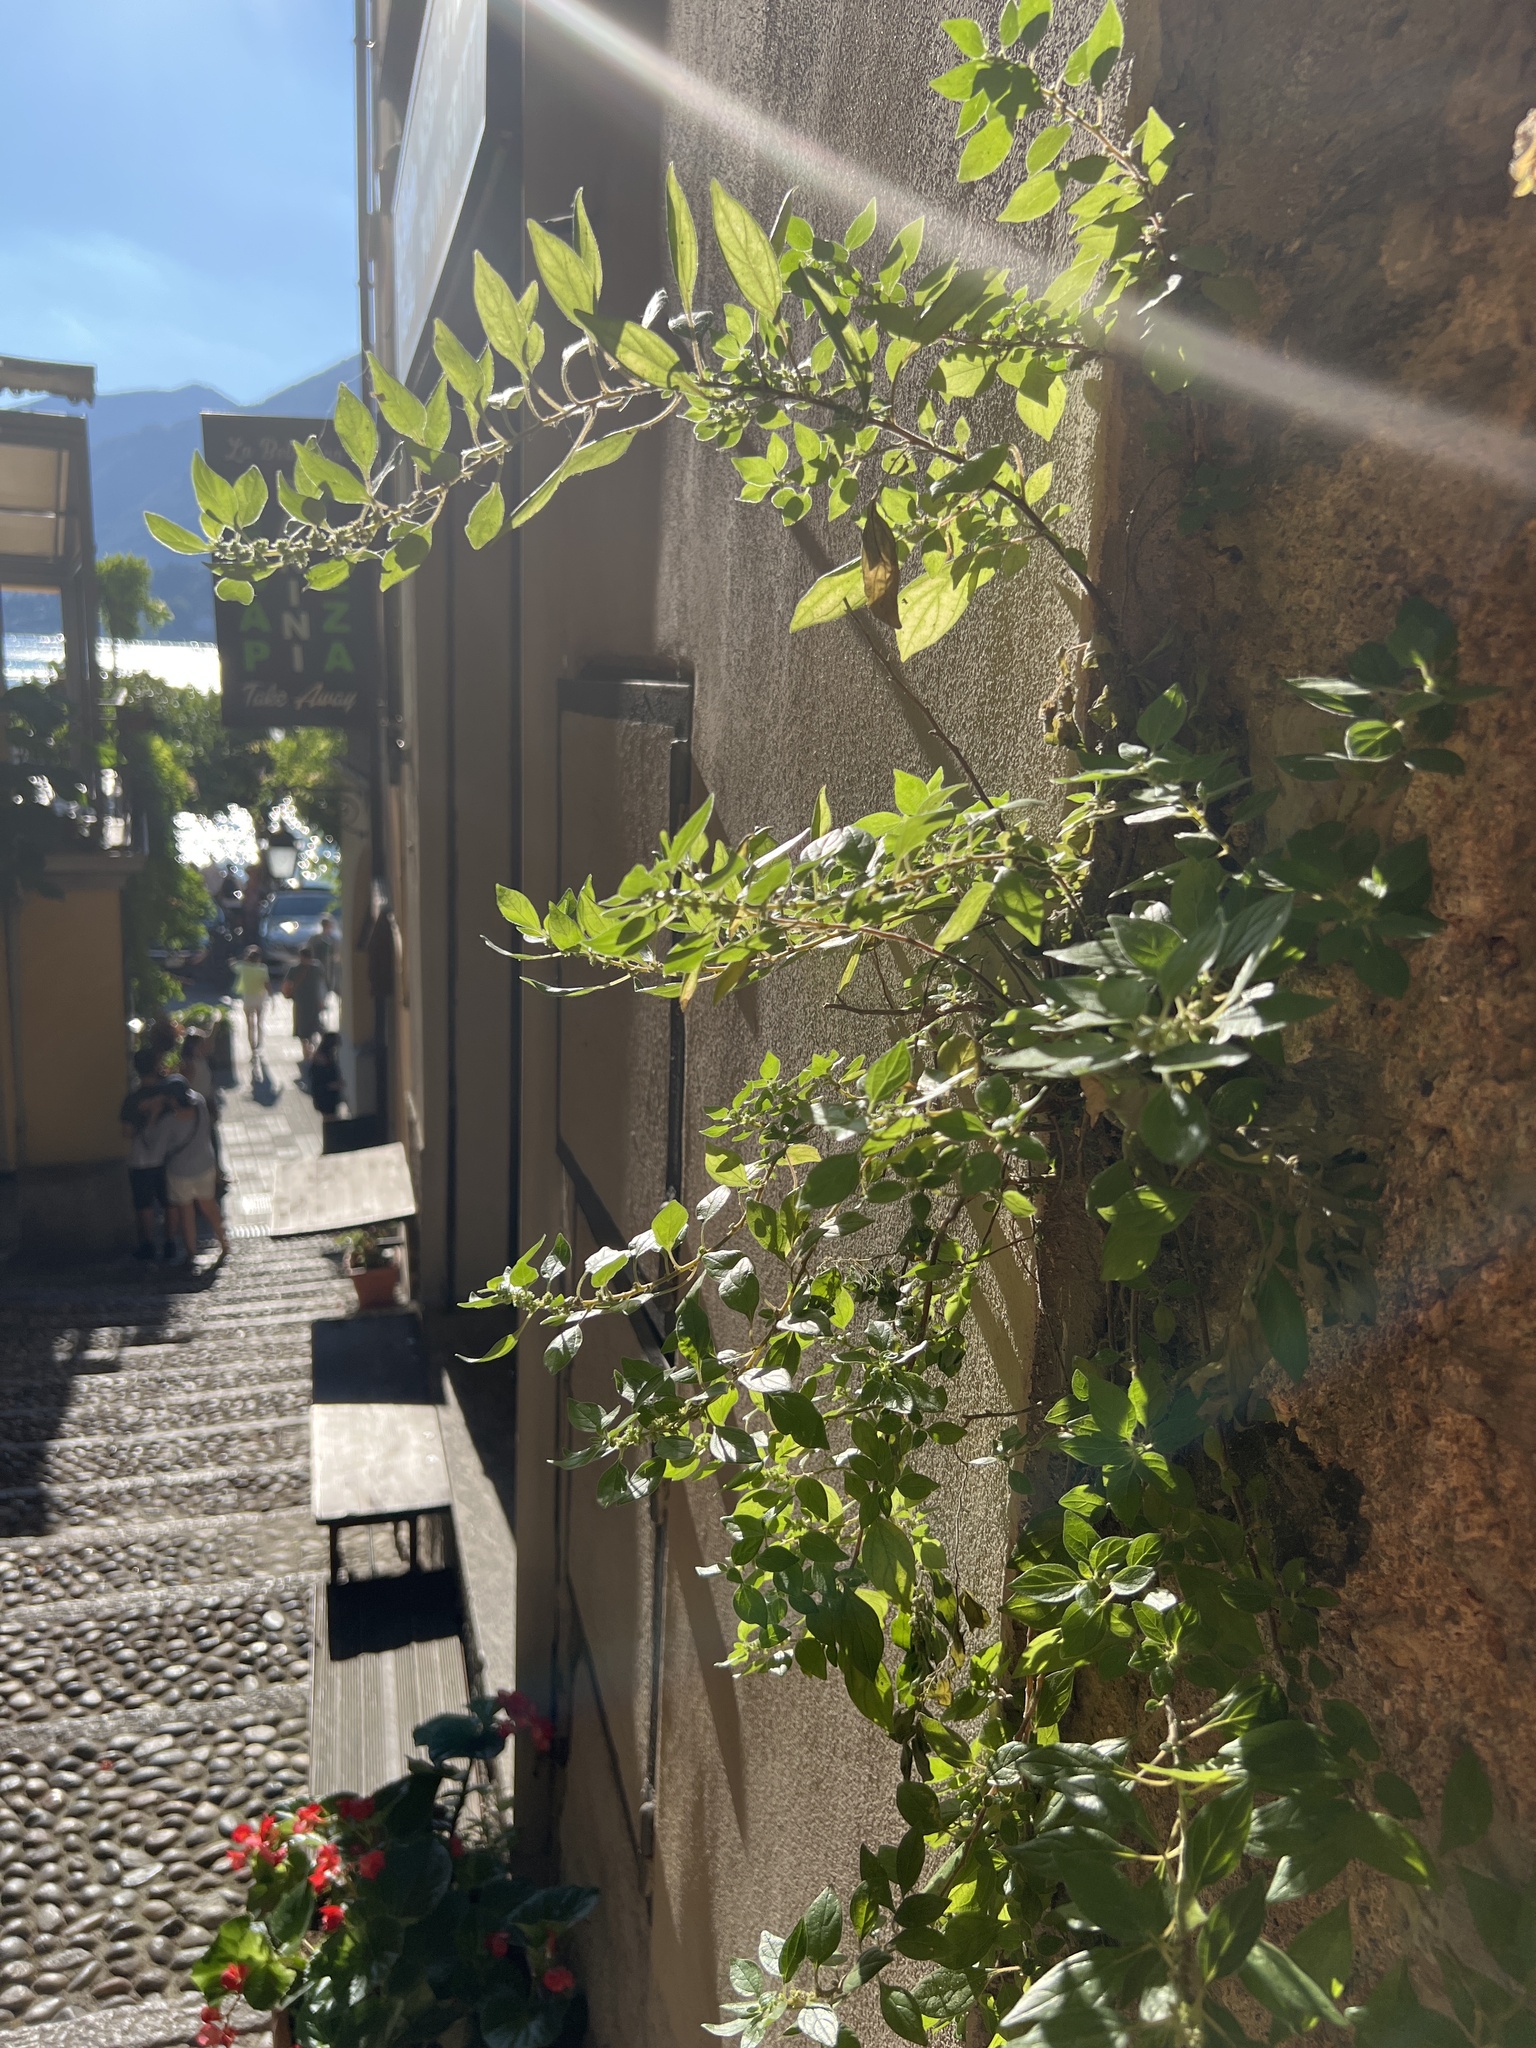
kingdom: Plantae
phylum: Tracheophyta
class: Magnoliopsida
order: Rosales
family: Urticaceae
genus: Parietaria
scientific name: Parietaria judaica
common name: Pellitory-of-the-wall
